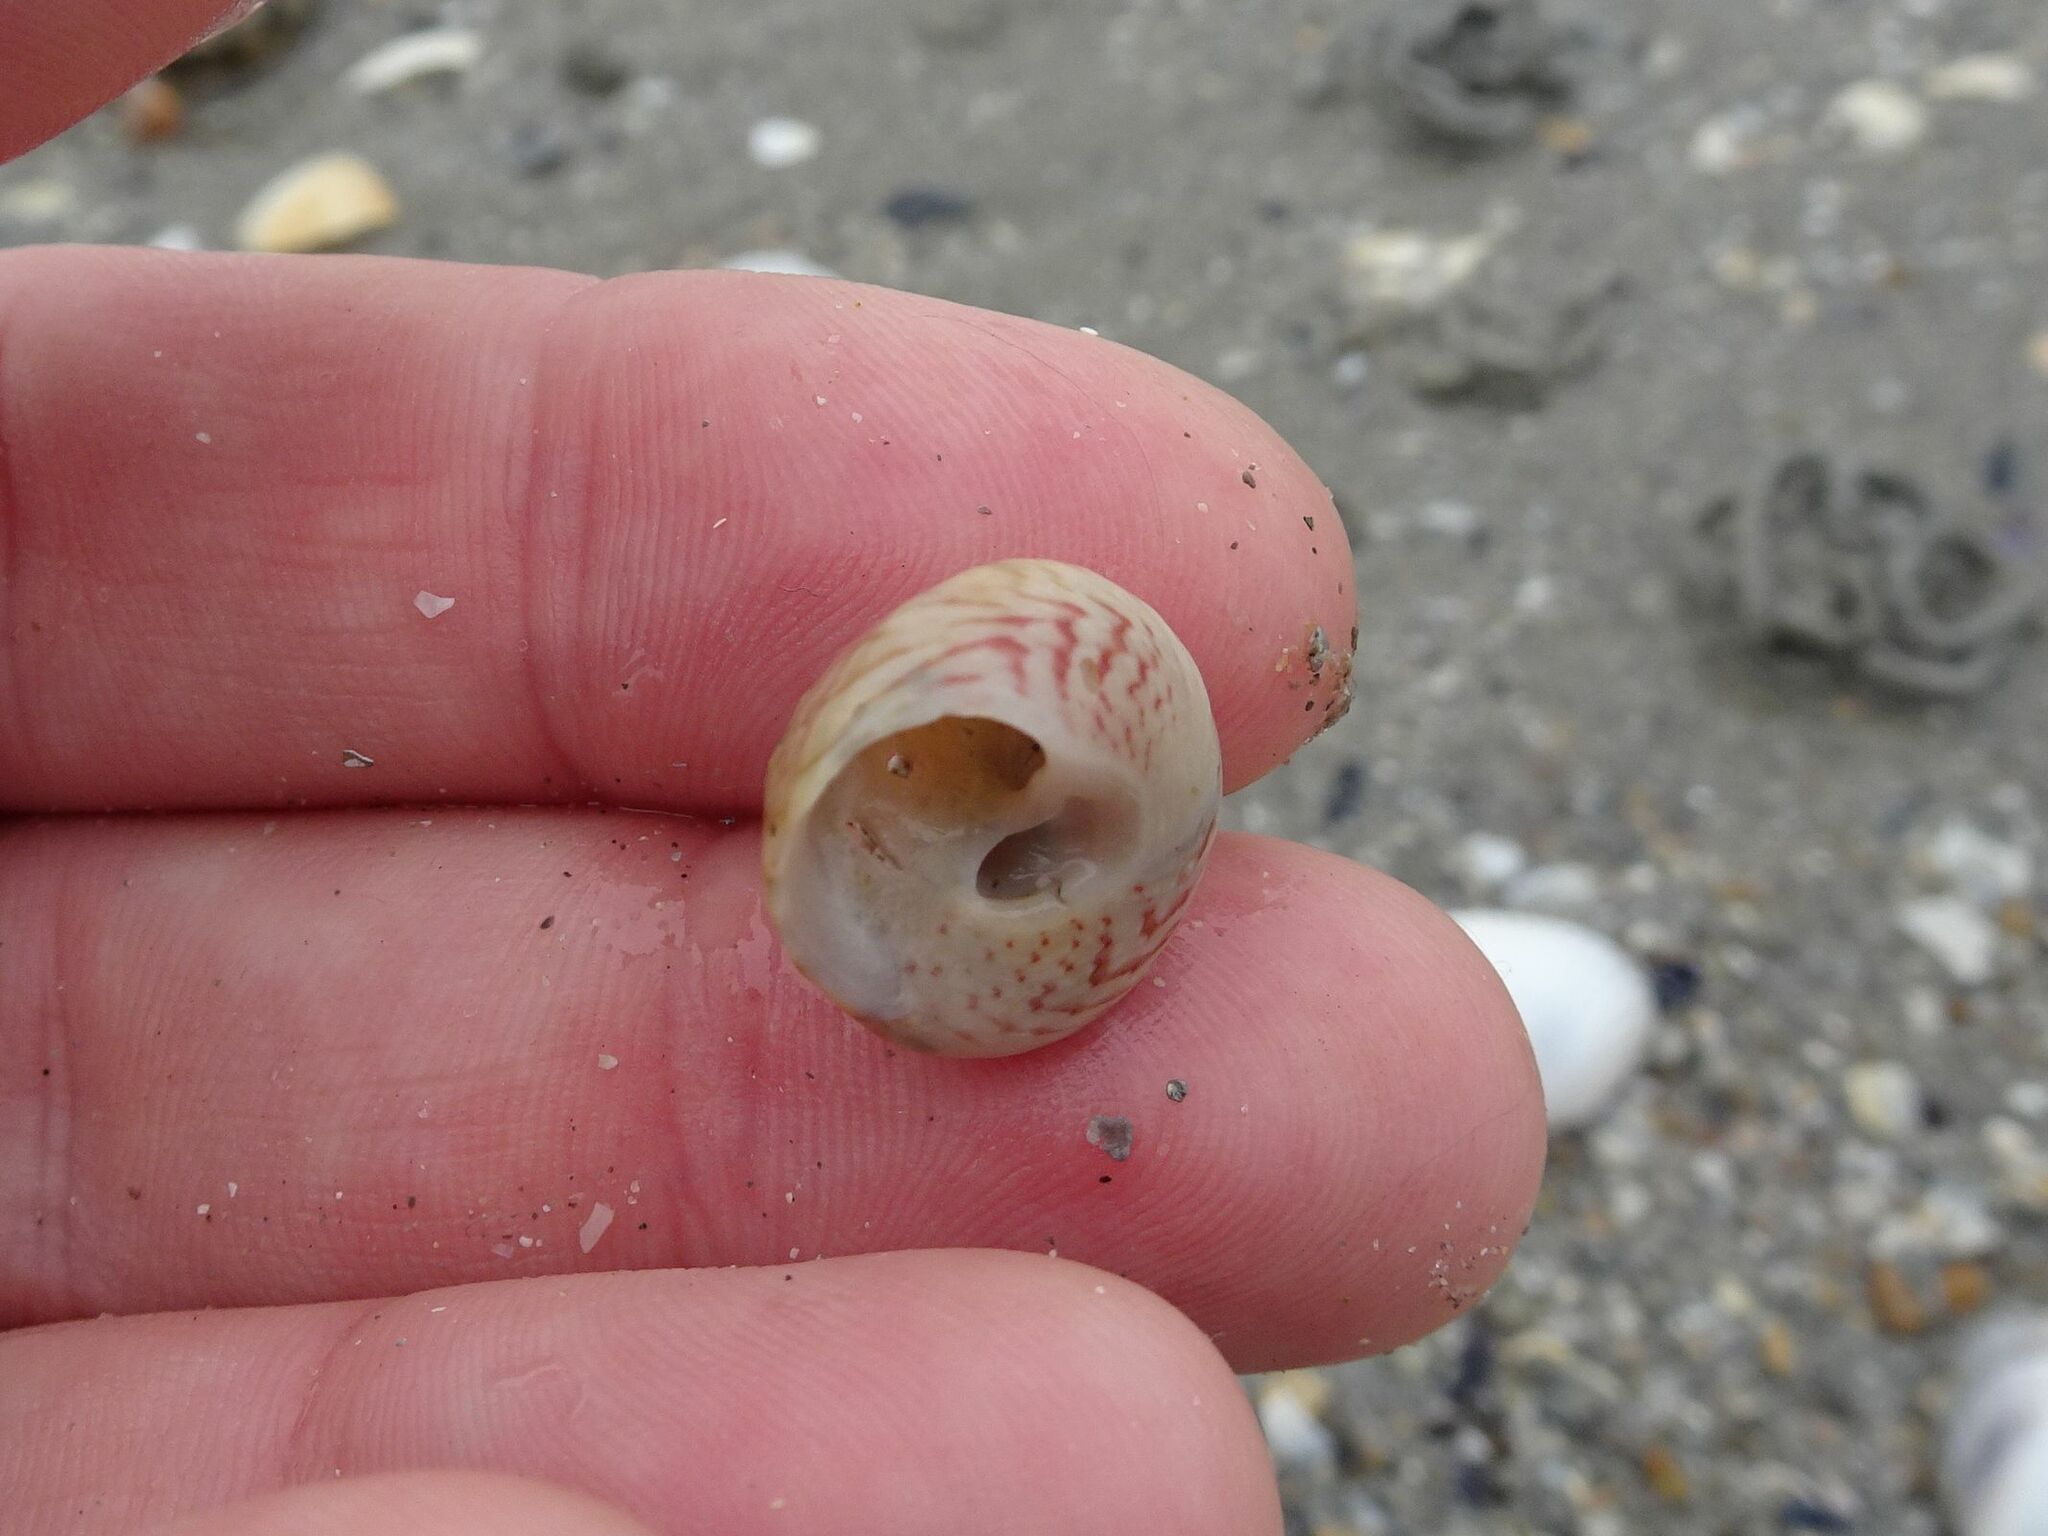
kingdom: Animalia
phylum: Mollusca
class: Gastropoda
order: Trochida
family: Trochidae
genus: Gibbula
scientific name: Gibbula magus
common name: Turban top shell
